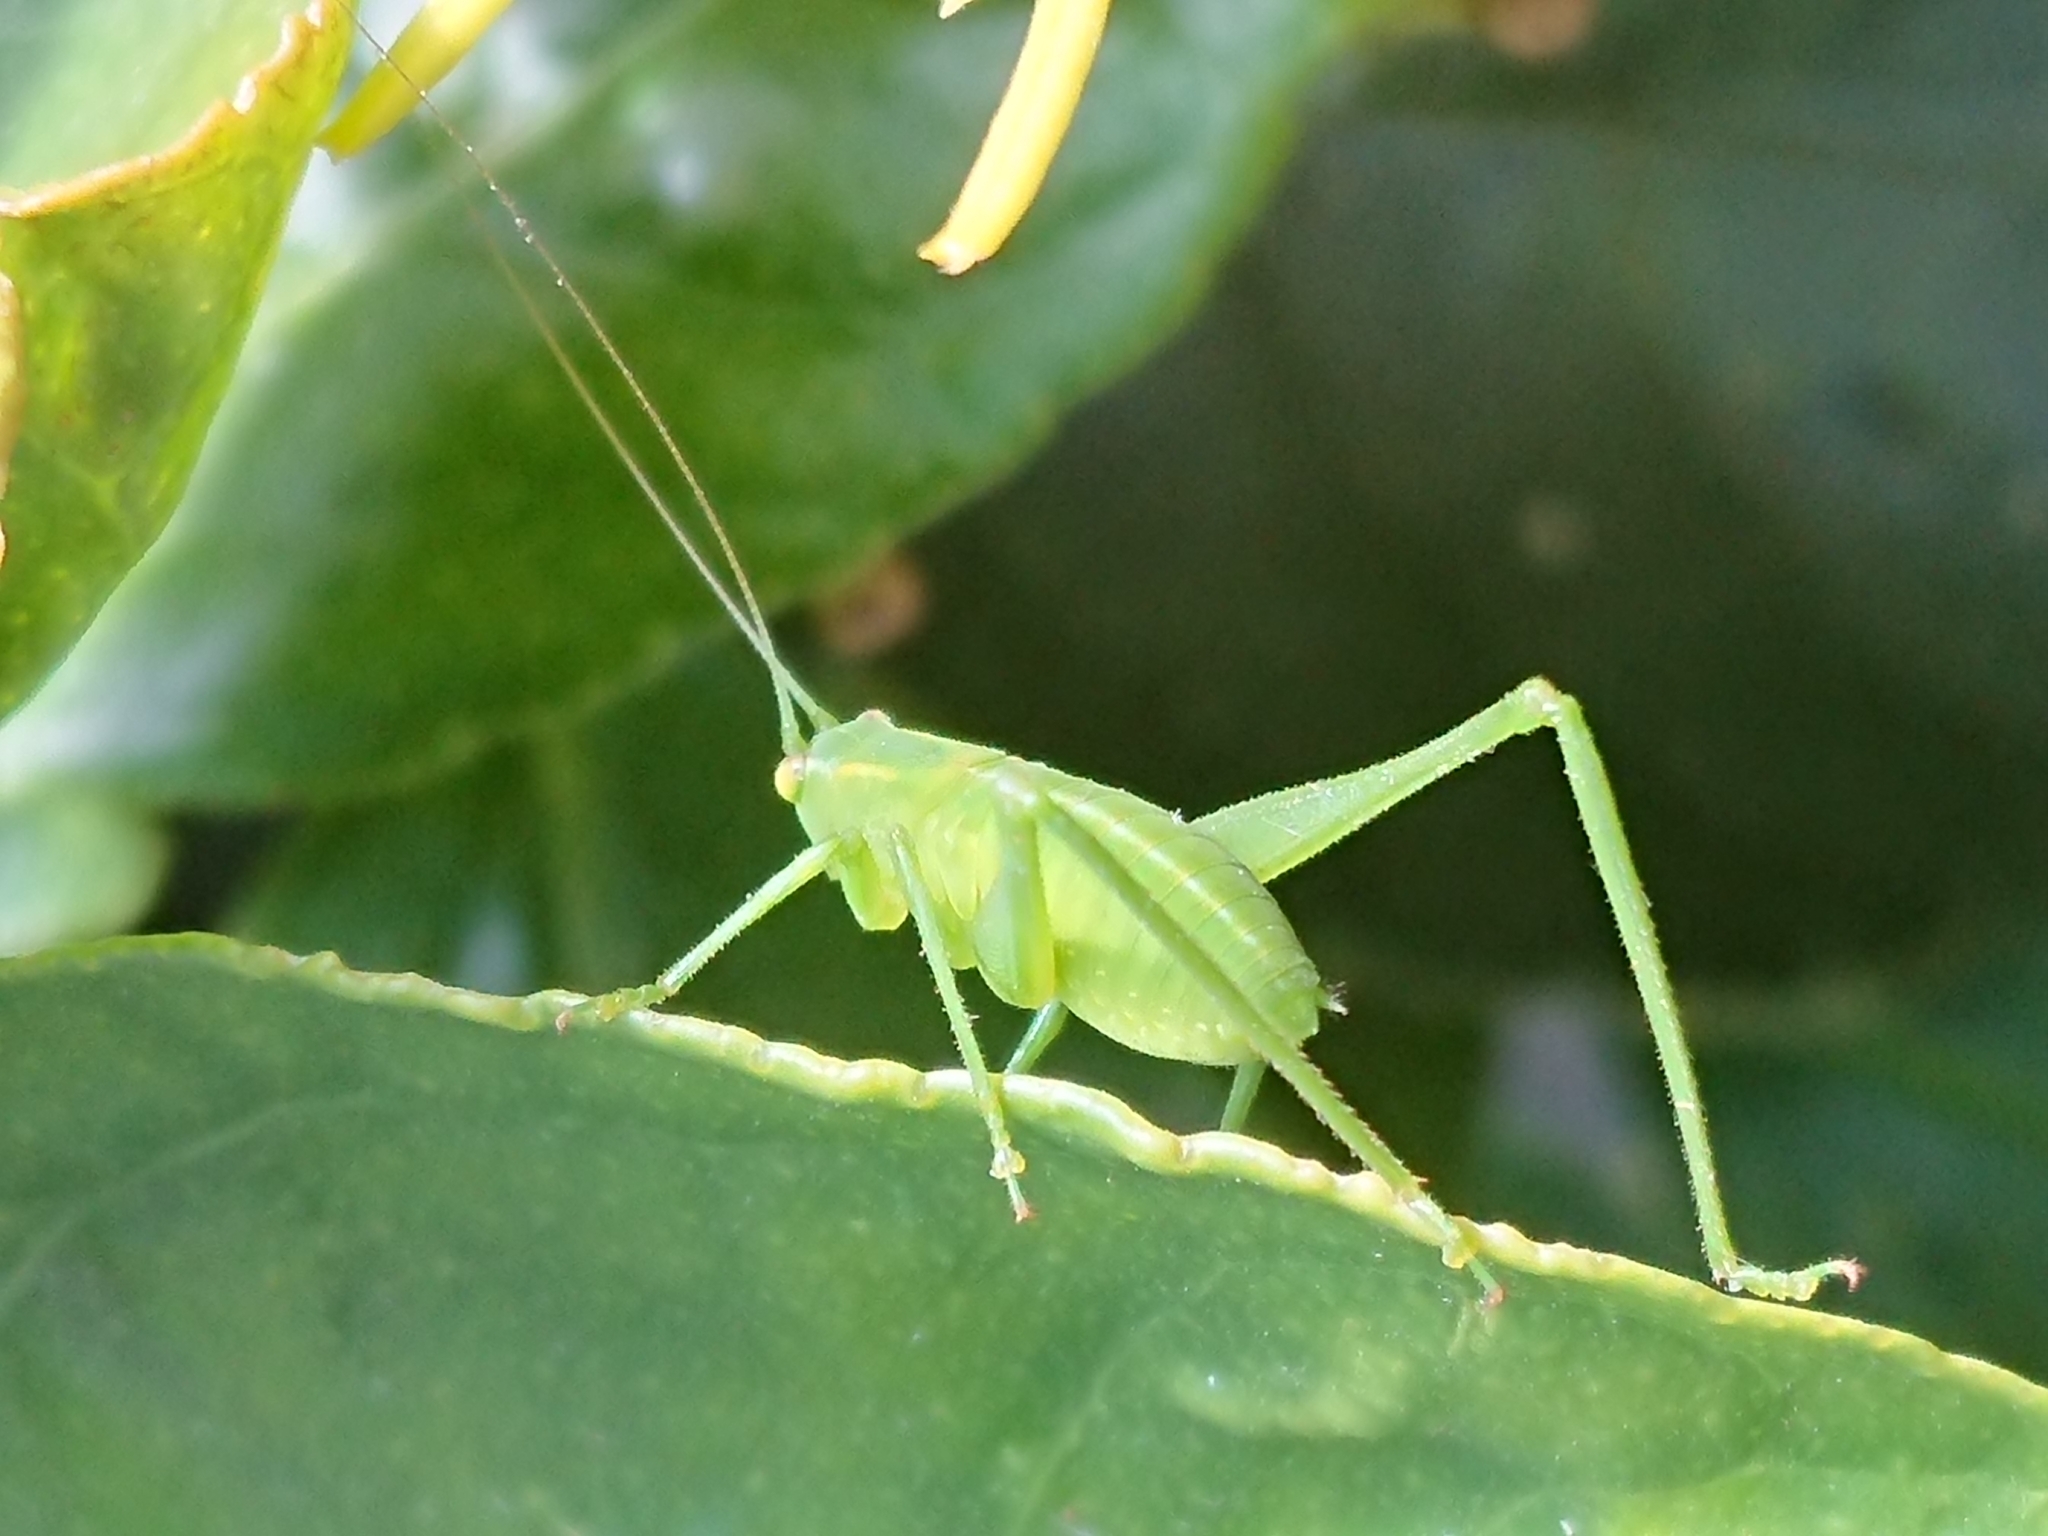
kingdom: Animalia
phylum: Arthropoda
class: Insecta
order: Orthoptera
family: Tettigoniidae
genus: Caedicia
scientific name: Caedicia simplex
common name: Common garden katydid
